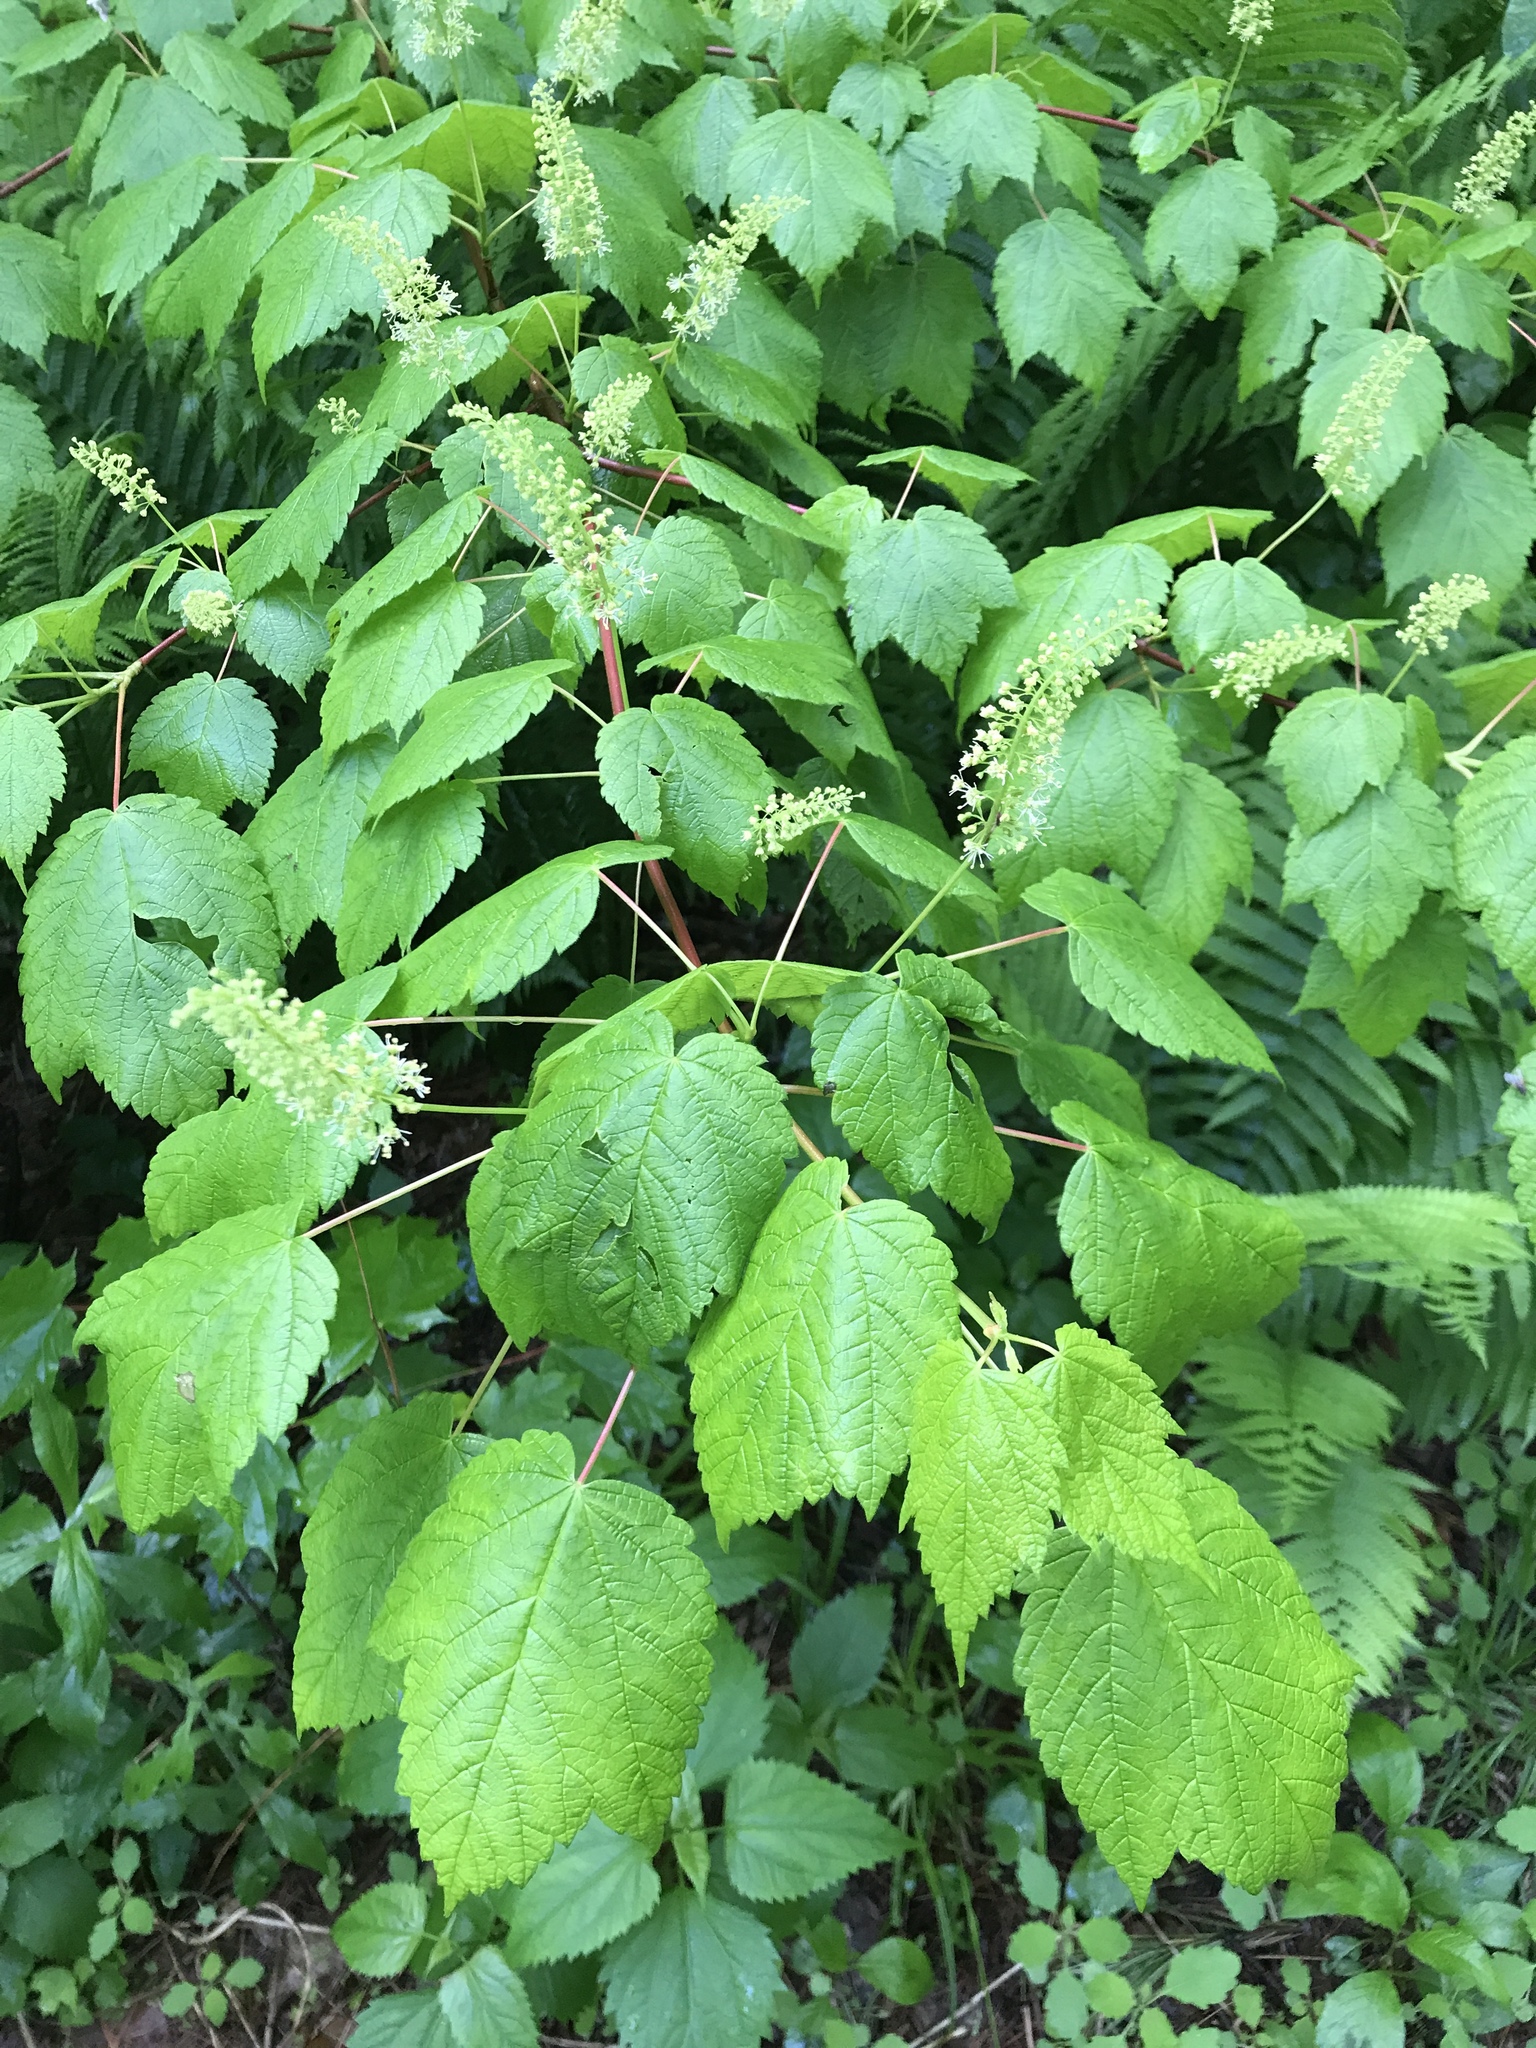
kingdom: Plantae
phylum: Tracheophyta
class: Magnoliopsida
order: Sapindales
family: Sapindaceae
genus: Acer
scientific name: Acer spicatum
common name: Mountain maple
